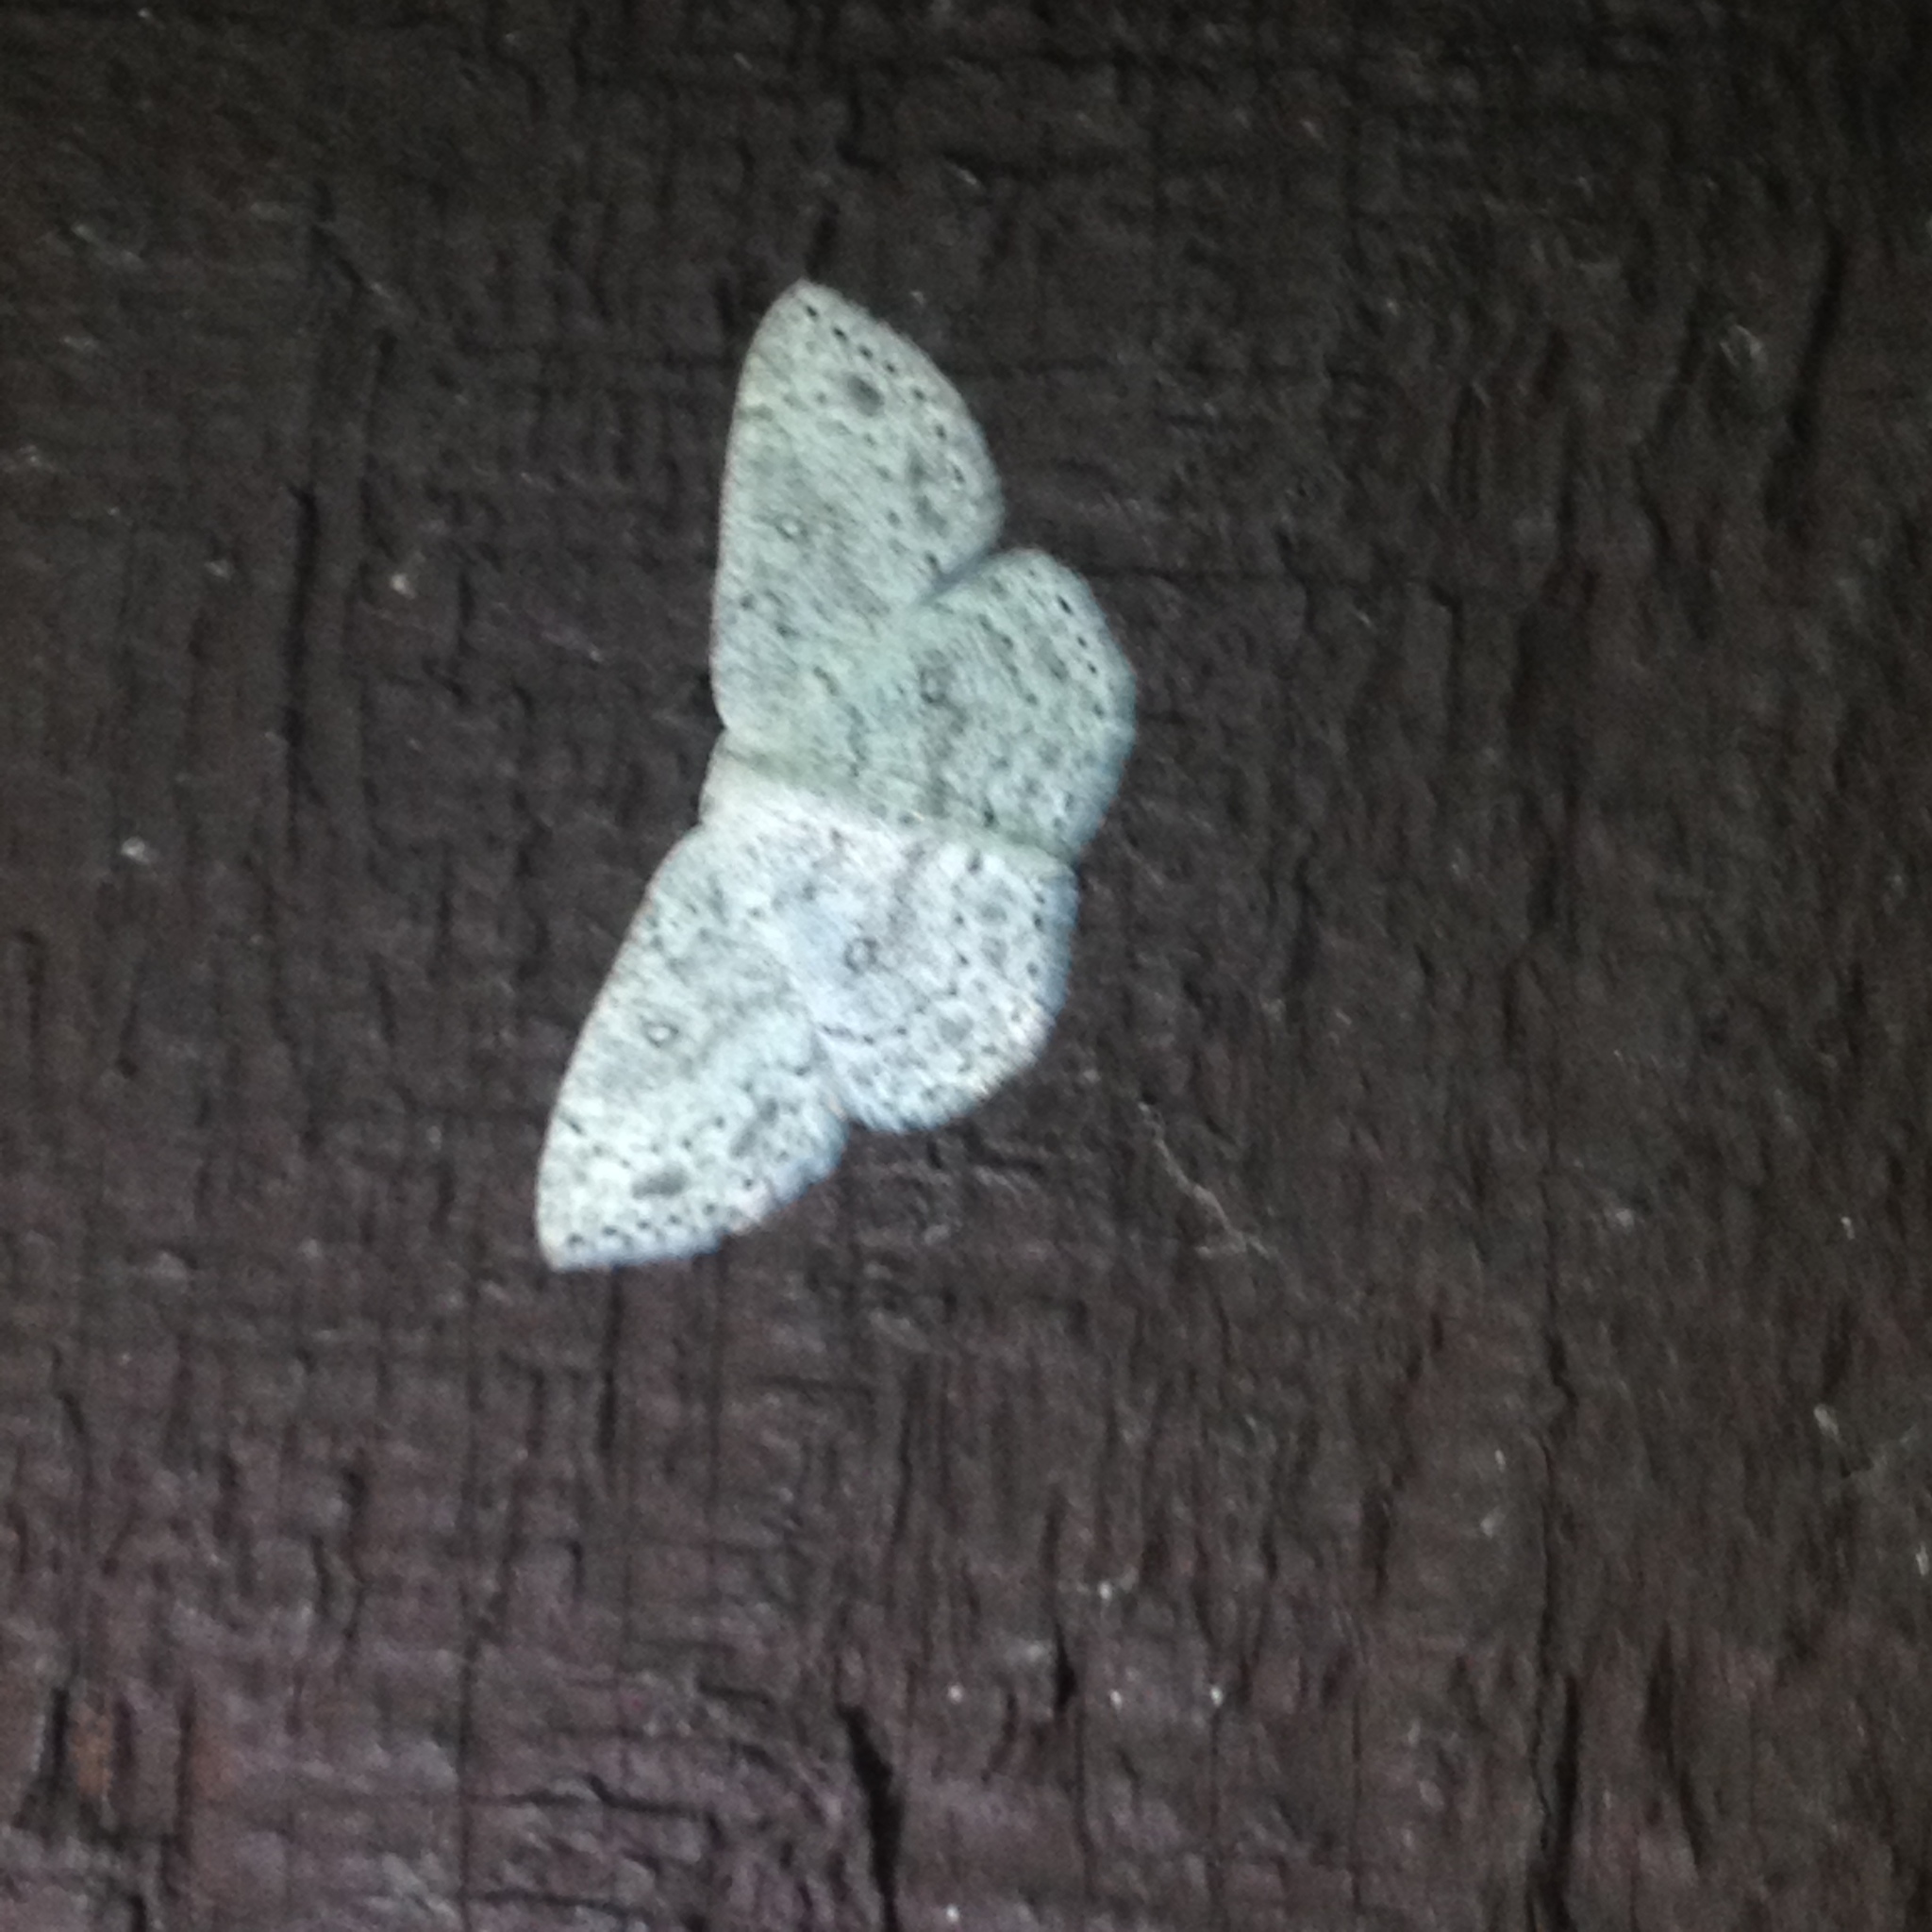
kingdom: Animalia
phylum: Arthropoda
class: Insecta
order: Lepidoptera
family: Geometridae
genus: Cyclophora
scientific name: Cyclophora pendulinaria
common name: Sweet fern geometer
